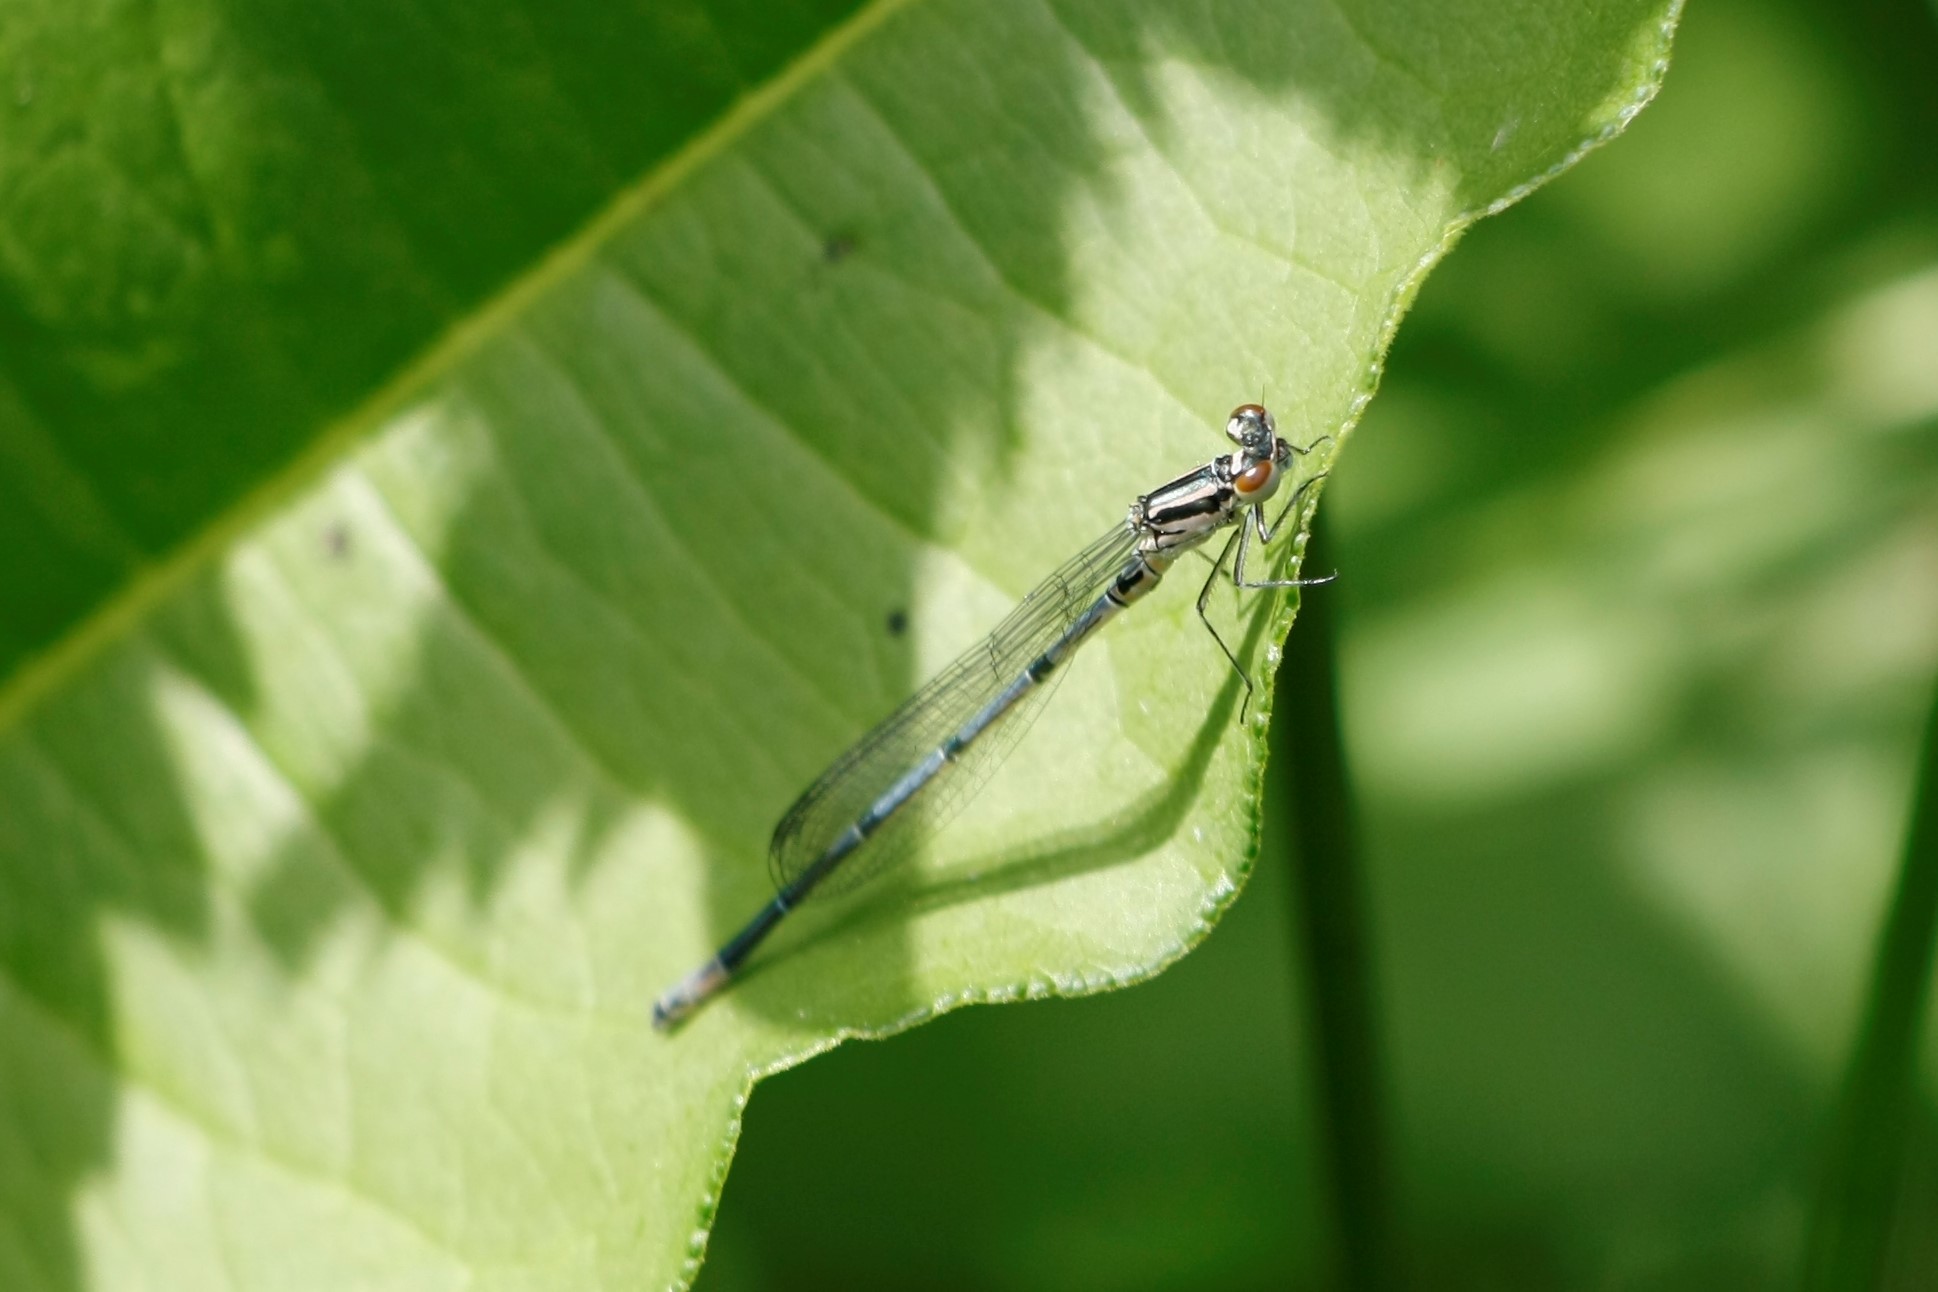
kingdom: Animalia
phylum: Arthropoda
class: Insecta
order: Odonata
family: Coenagrionidae
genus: Coenagrion
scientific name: Coenagrion puella
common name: Azure damselfly
